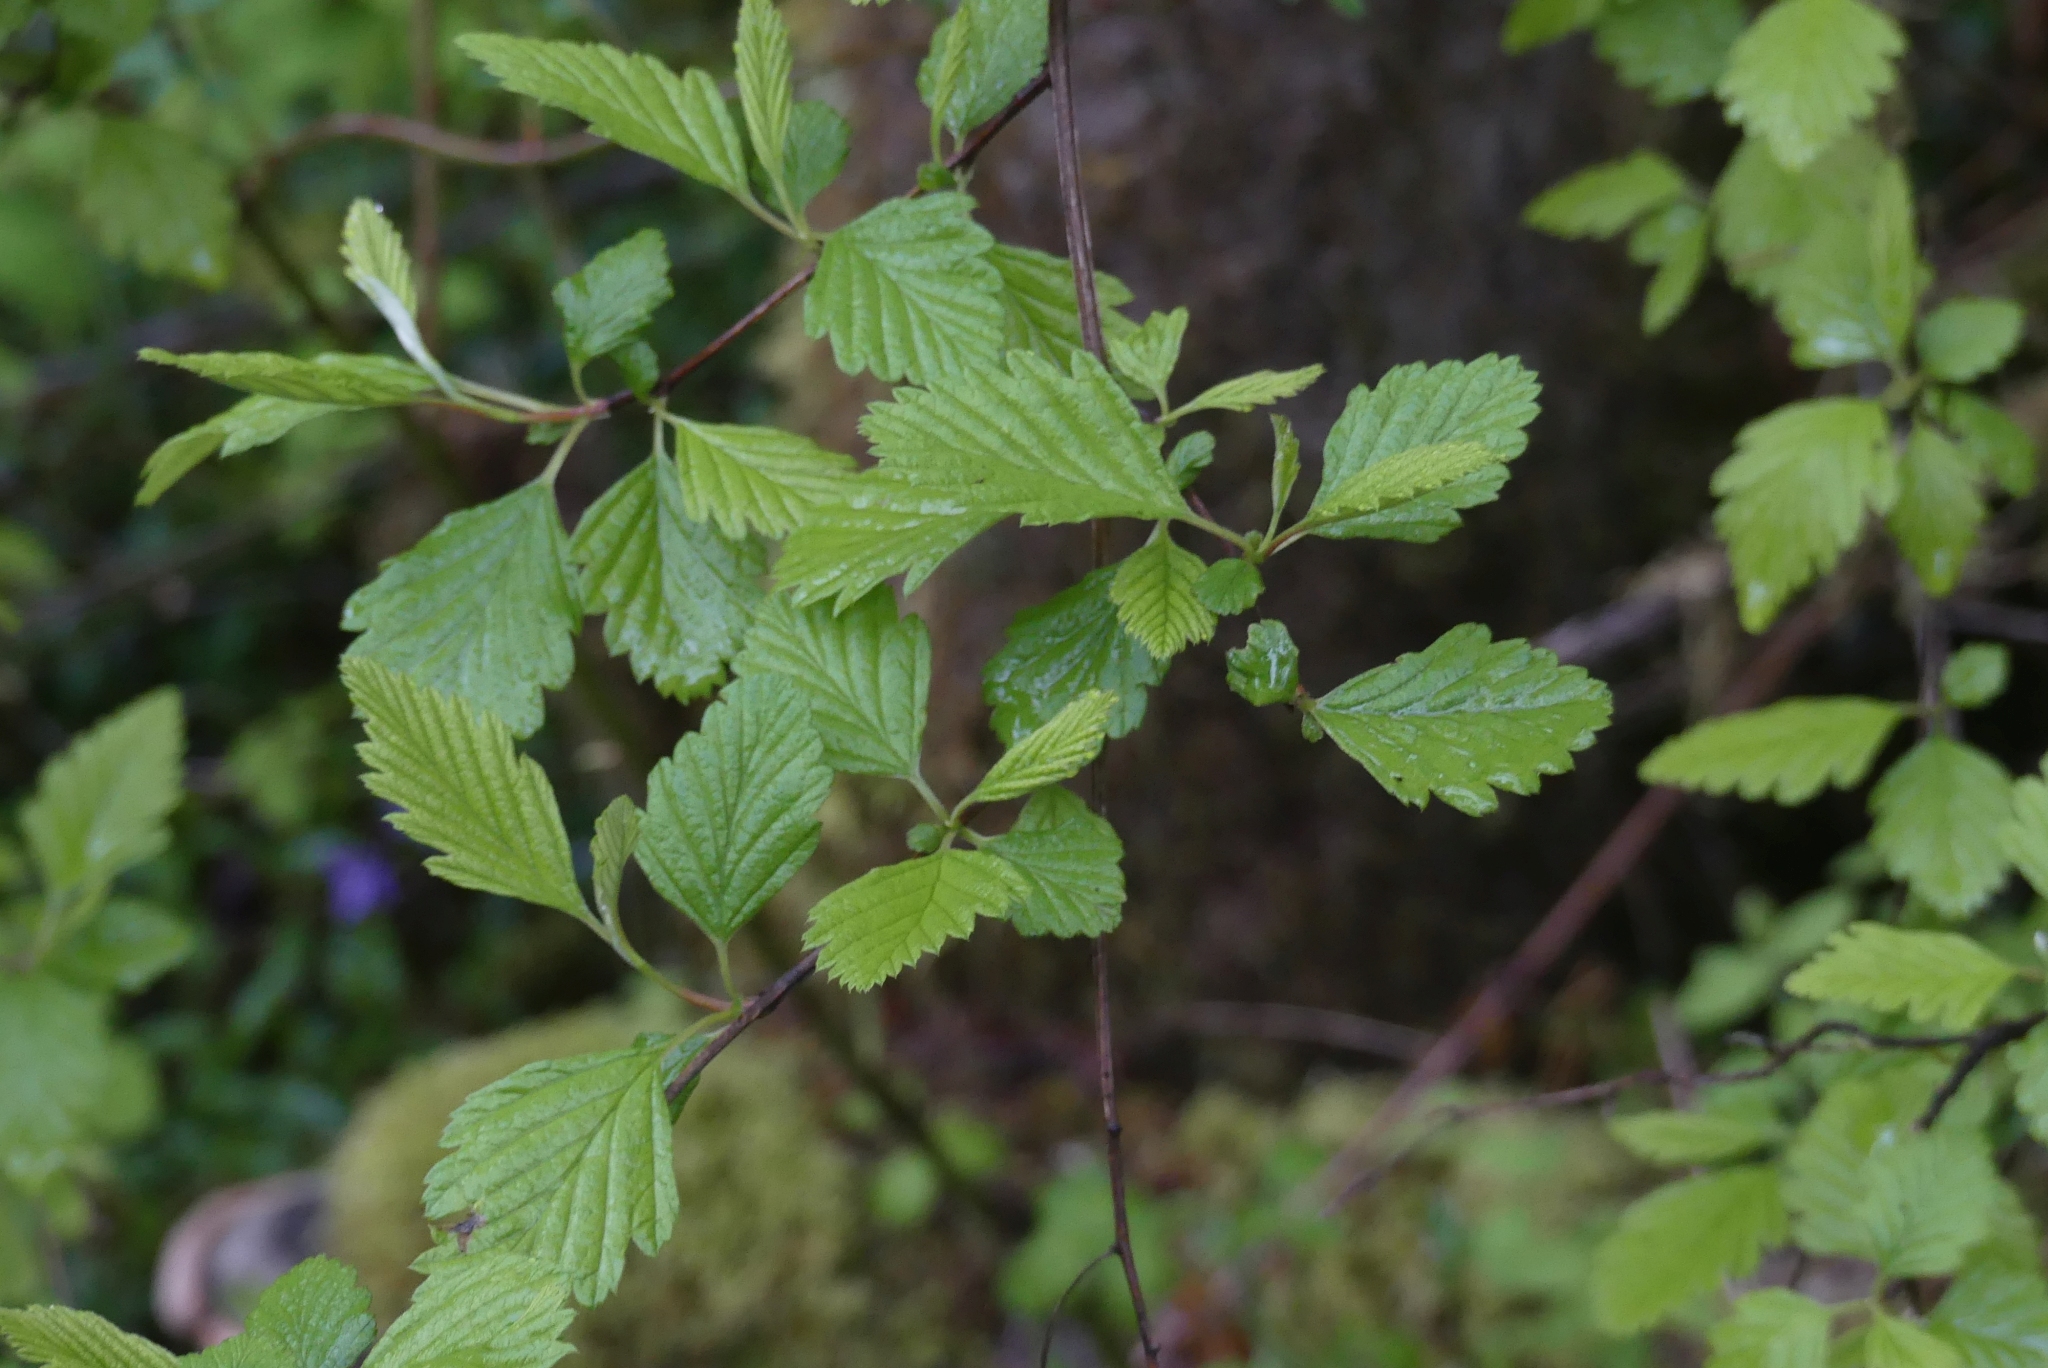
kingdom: Plantae
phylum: Tracheophyta
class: Magnoliopsida
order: Rosales
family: Rosaceae
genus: Holodiscus
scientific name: Holodiscus discolor
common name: Oceanspray
